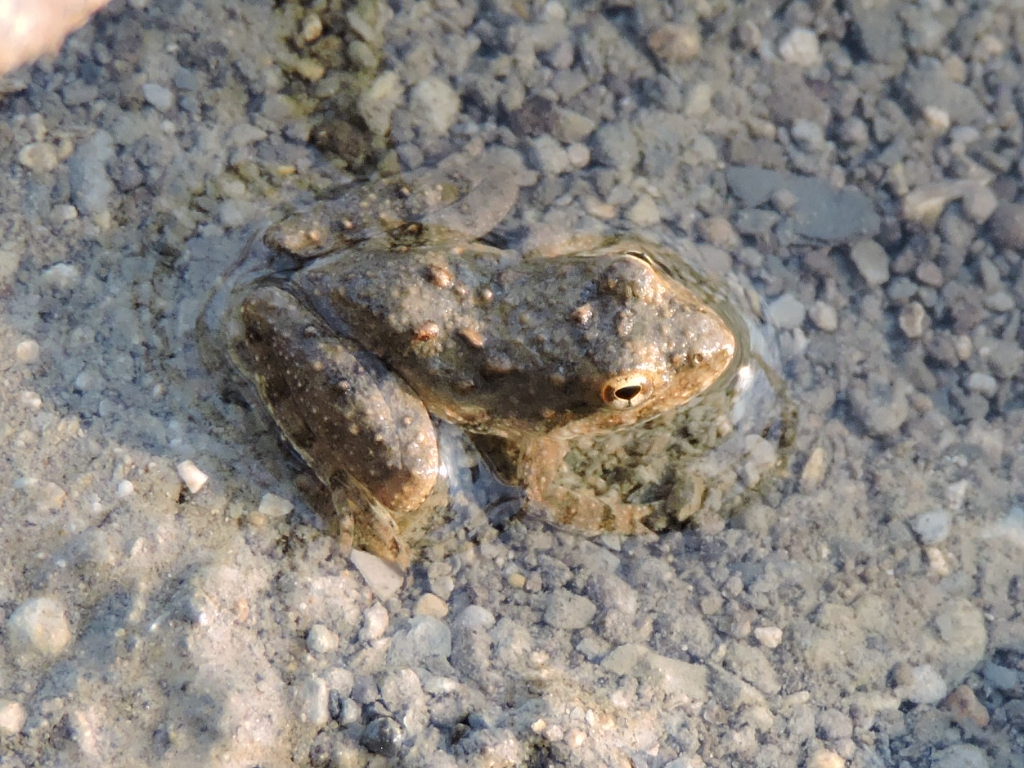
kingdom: Animalia
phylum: Chordata
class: Amphibia
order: Anura
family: Hylidae
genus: Acris
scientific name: Acris blanchardi
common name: Blanchard's cricket frog
